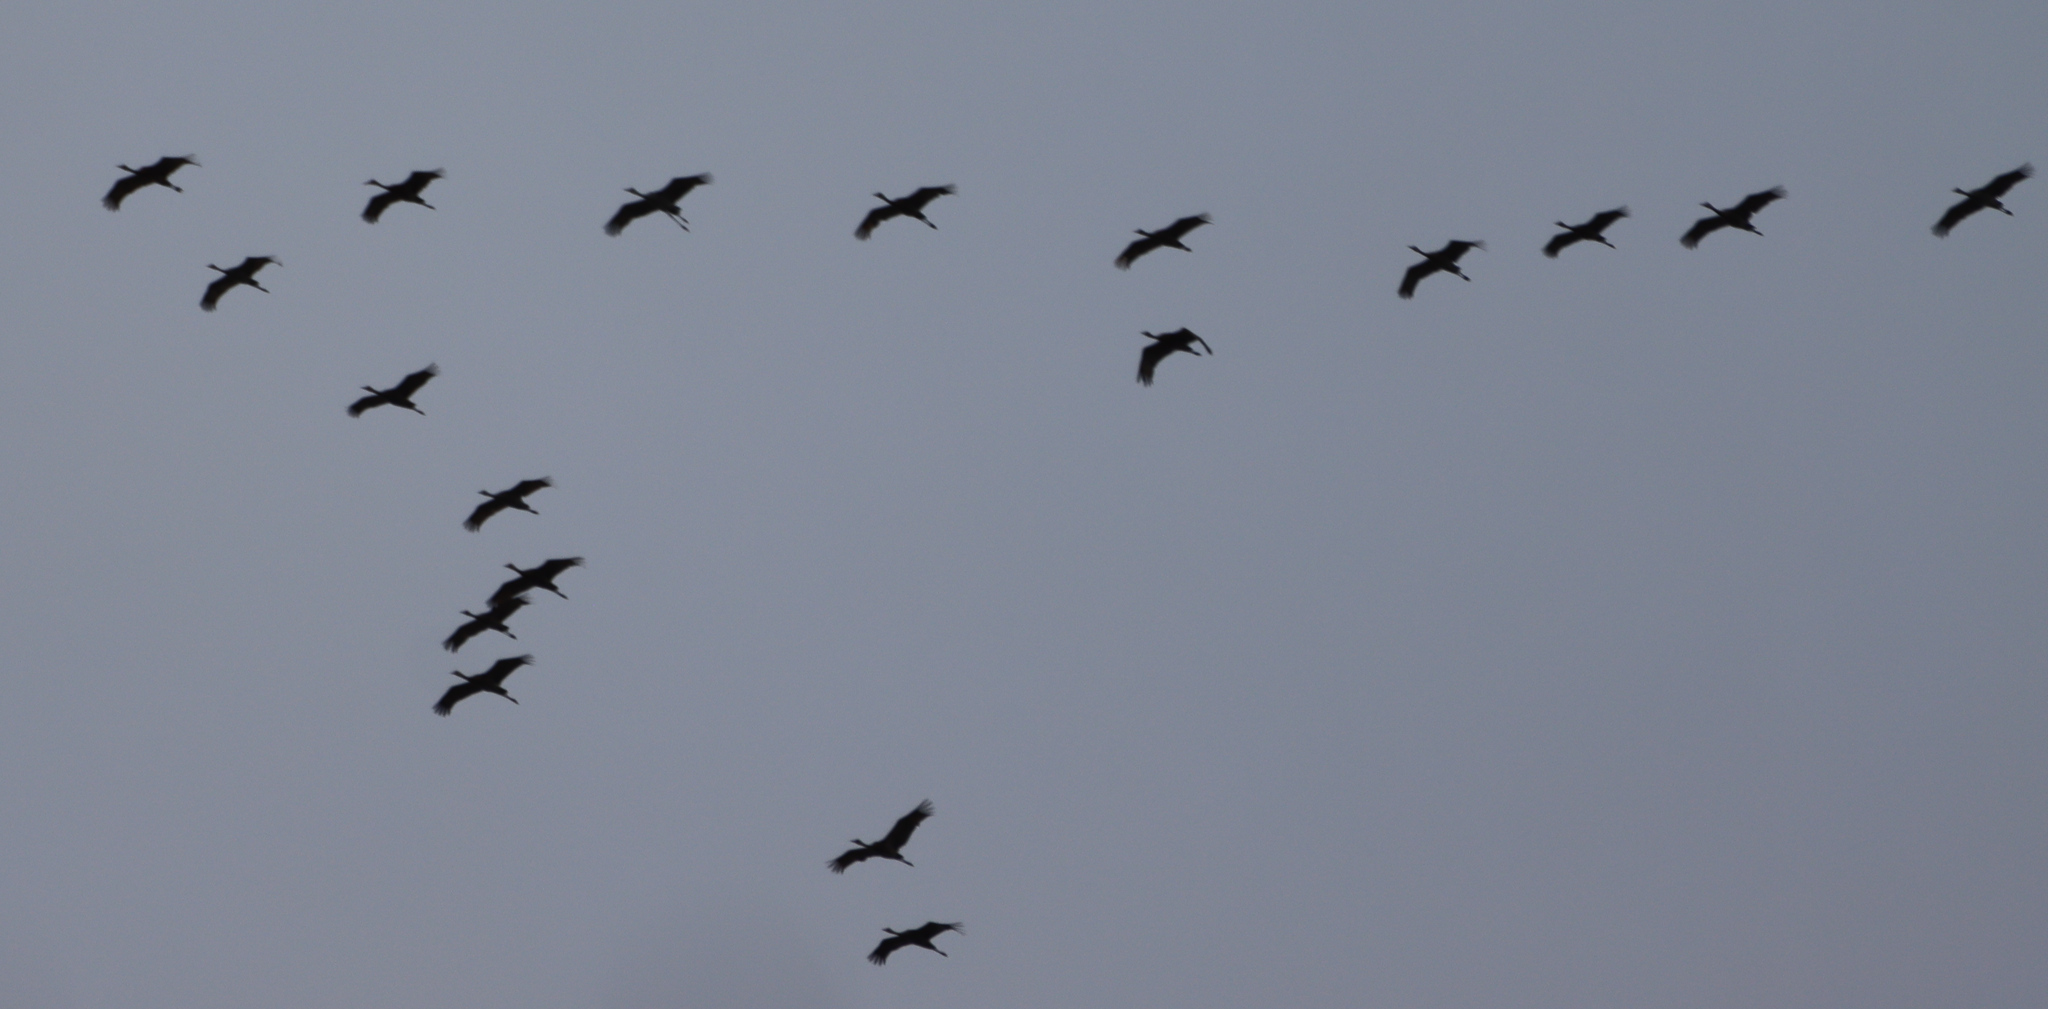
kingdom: Animalia
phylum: Chordata
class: Aves
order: Gruiformes
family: Gruidae
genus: Grus
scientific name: Grus canadensis
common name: Sandhill crane
